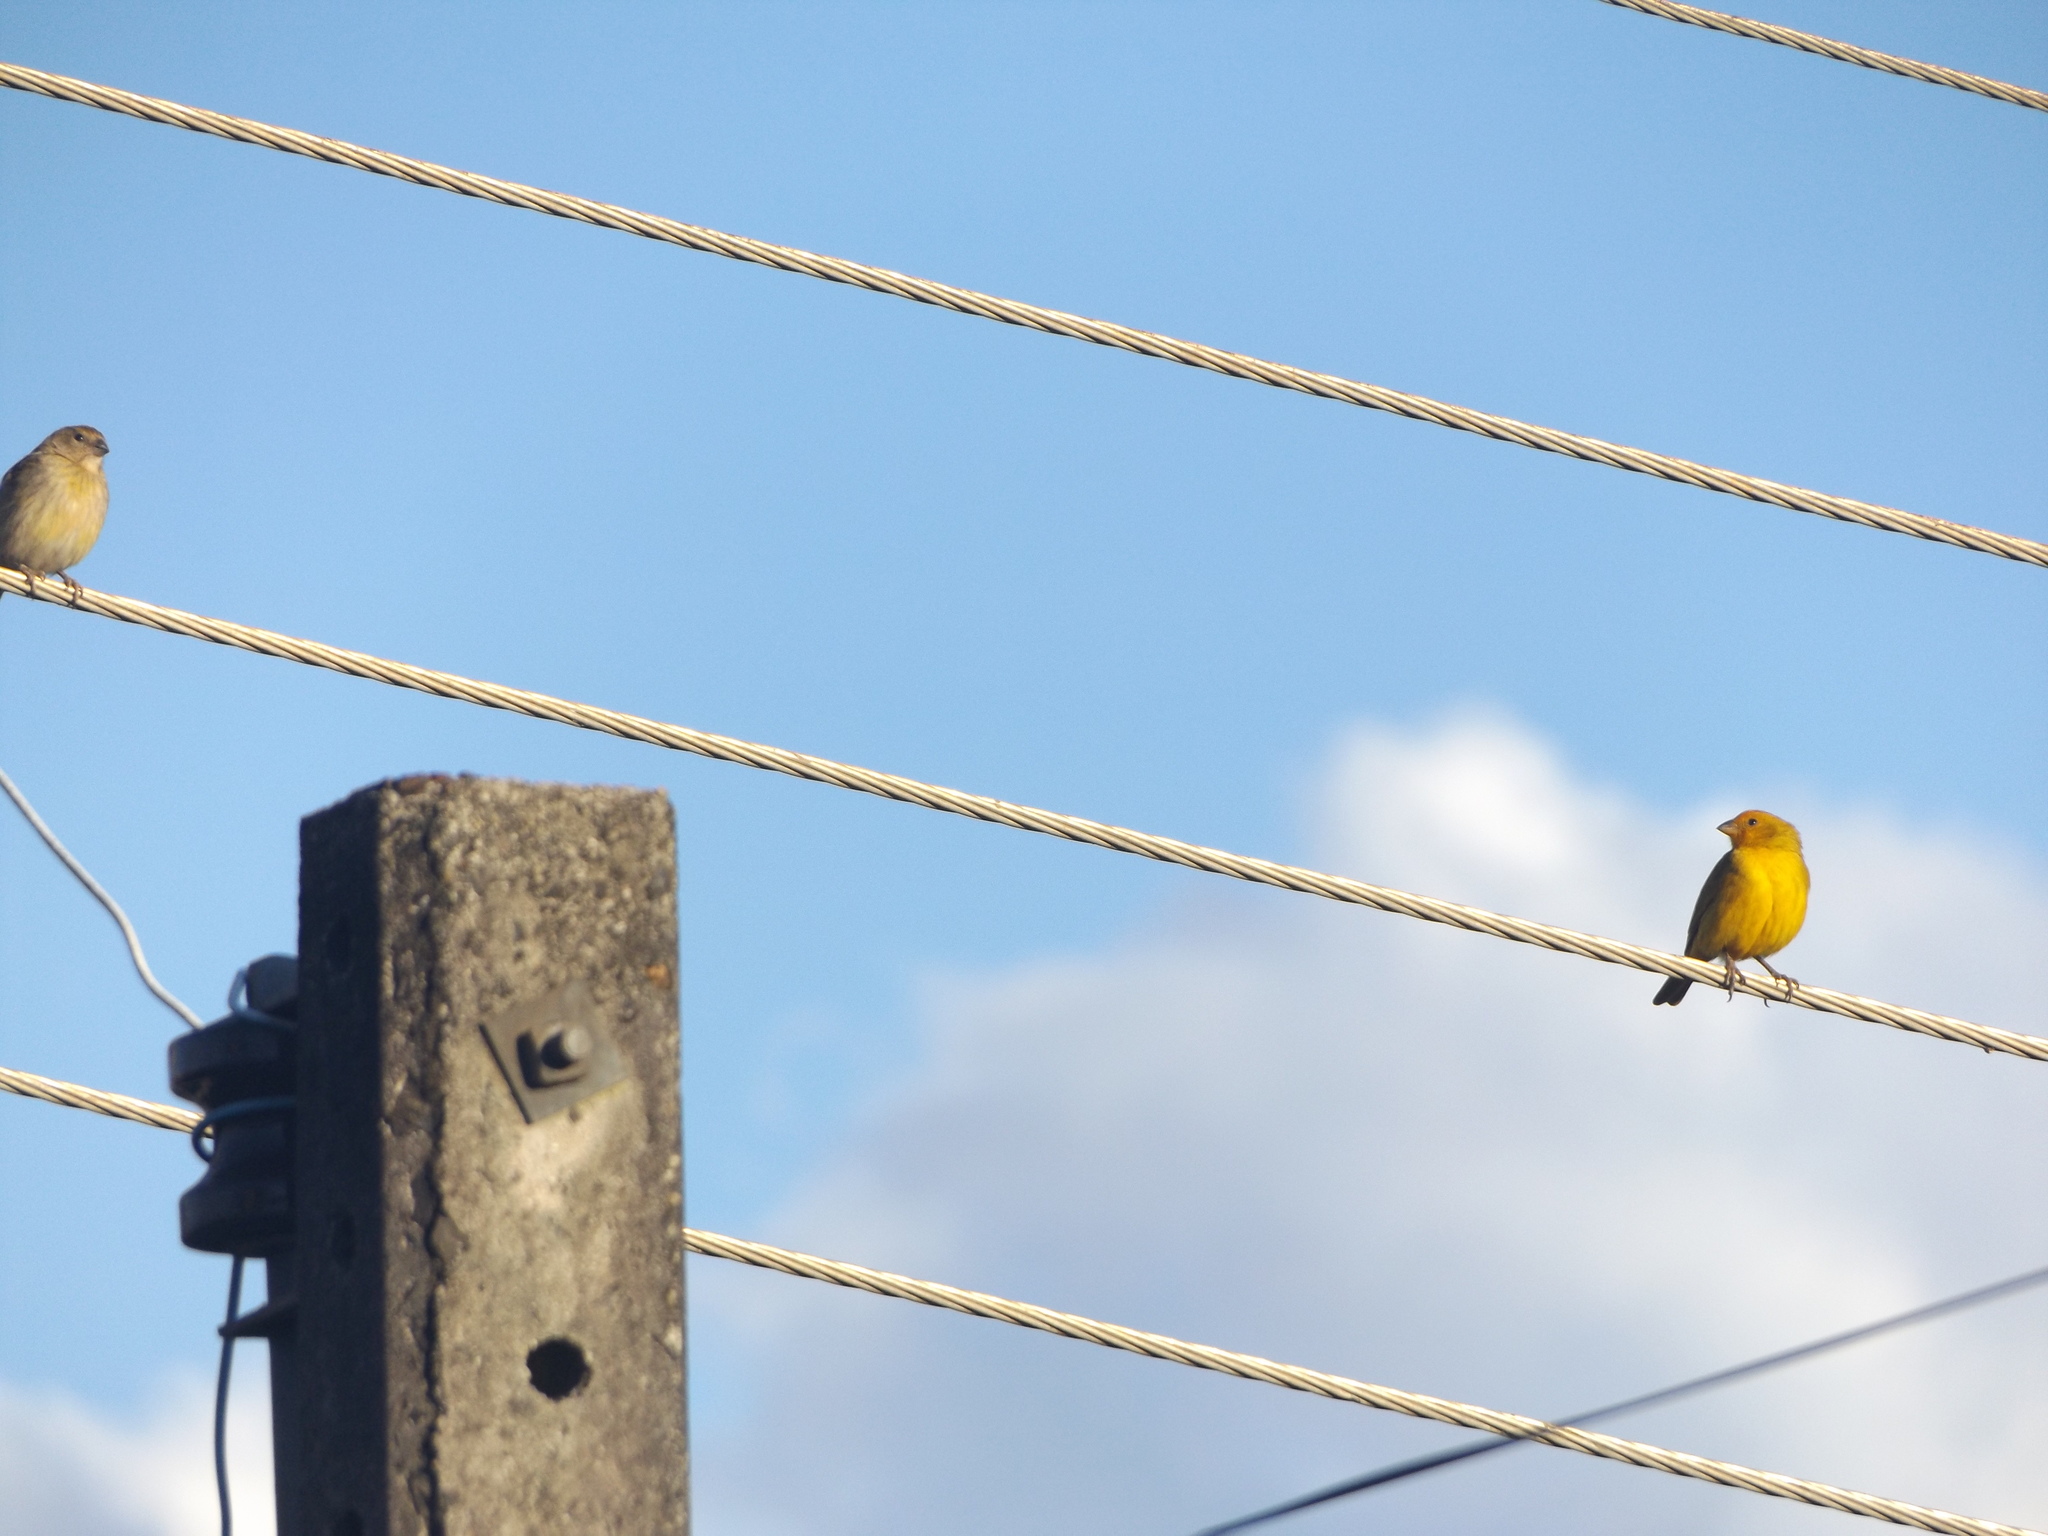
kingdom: Animalia
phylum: Chordata
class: Aves
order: Passeriformes
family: Thraupidae
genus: Sicalis
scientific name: Sicalis flaveola
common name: Saffron finch
